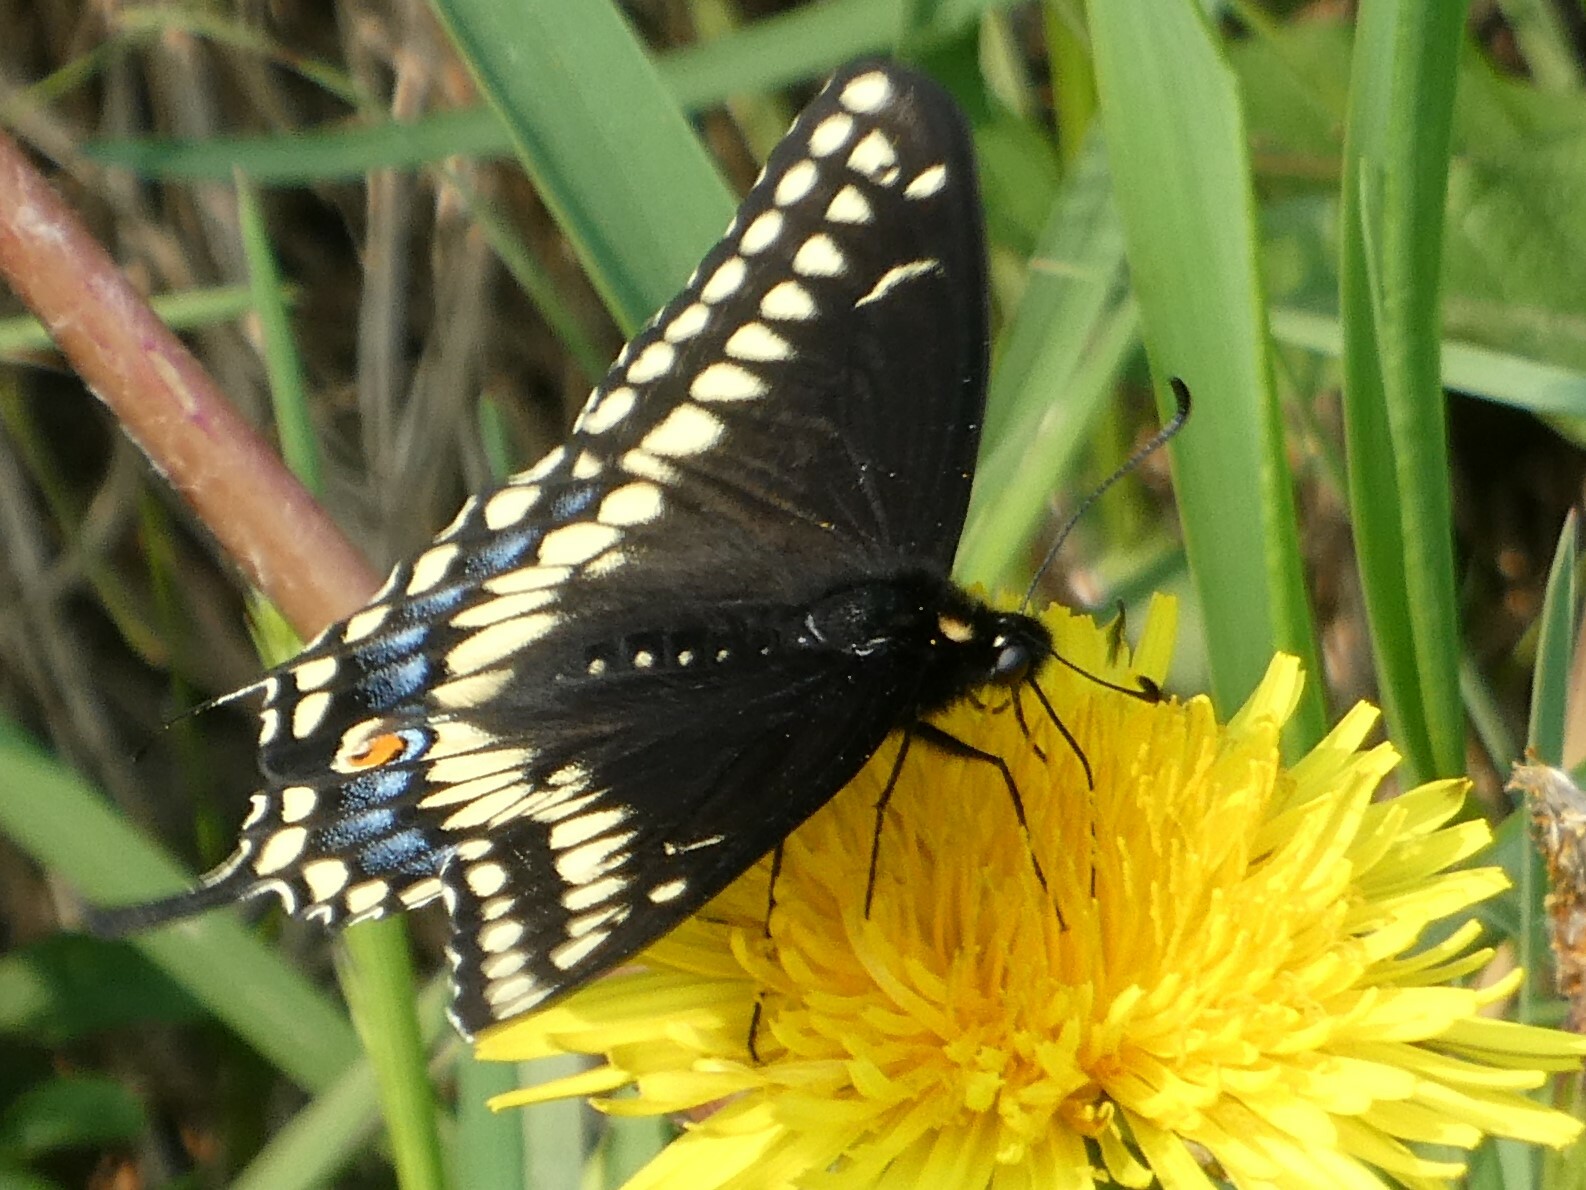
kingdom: Animalia
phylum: Arthropoda
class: Insecta
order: Lepidoptera
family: Papilionidae
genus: Papilio
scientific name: Papilio polyxenes
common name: Black swallowtail
